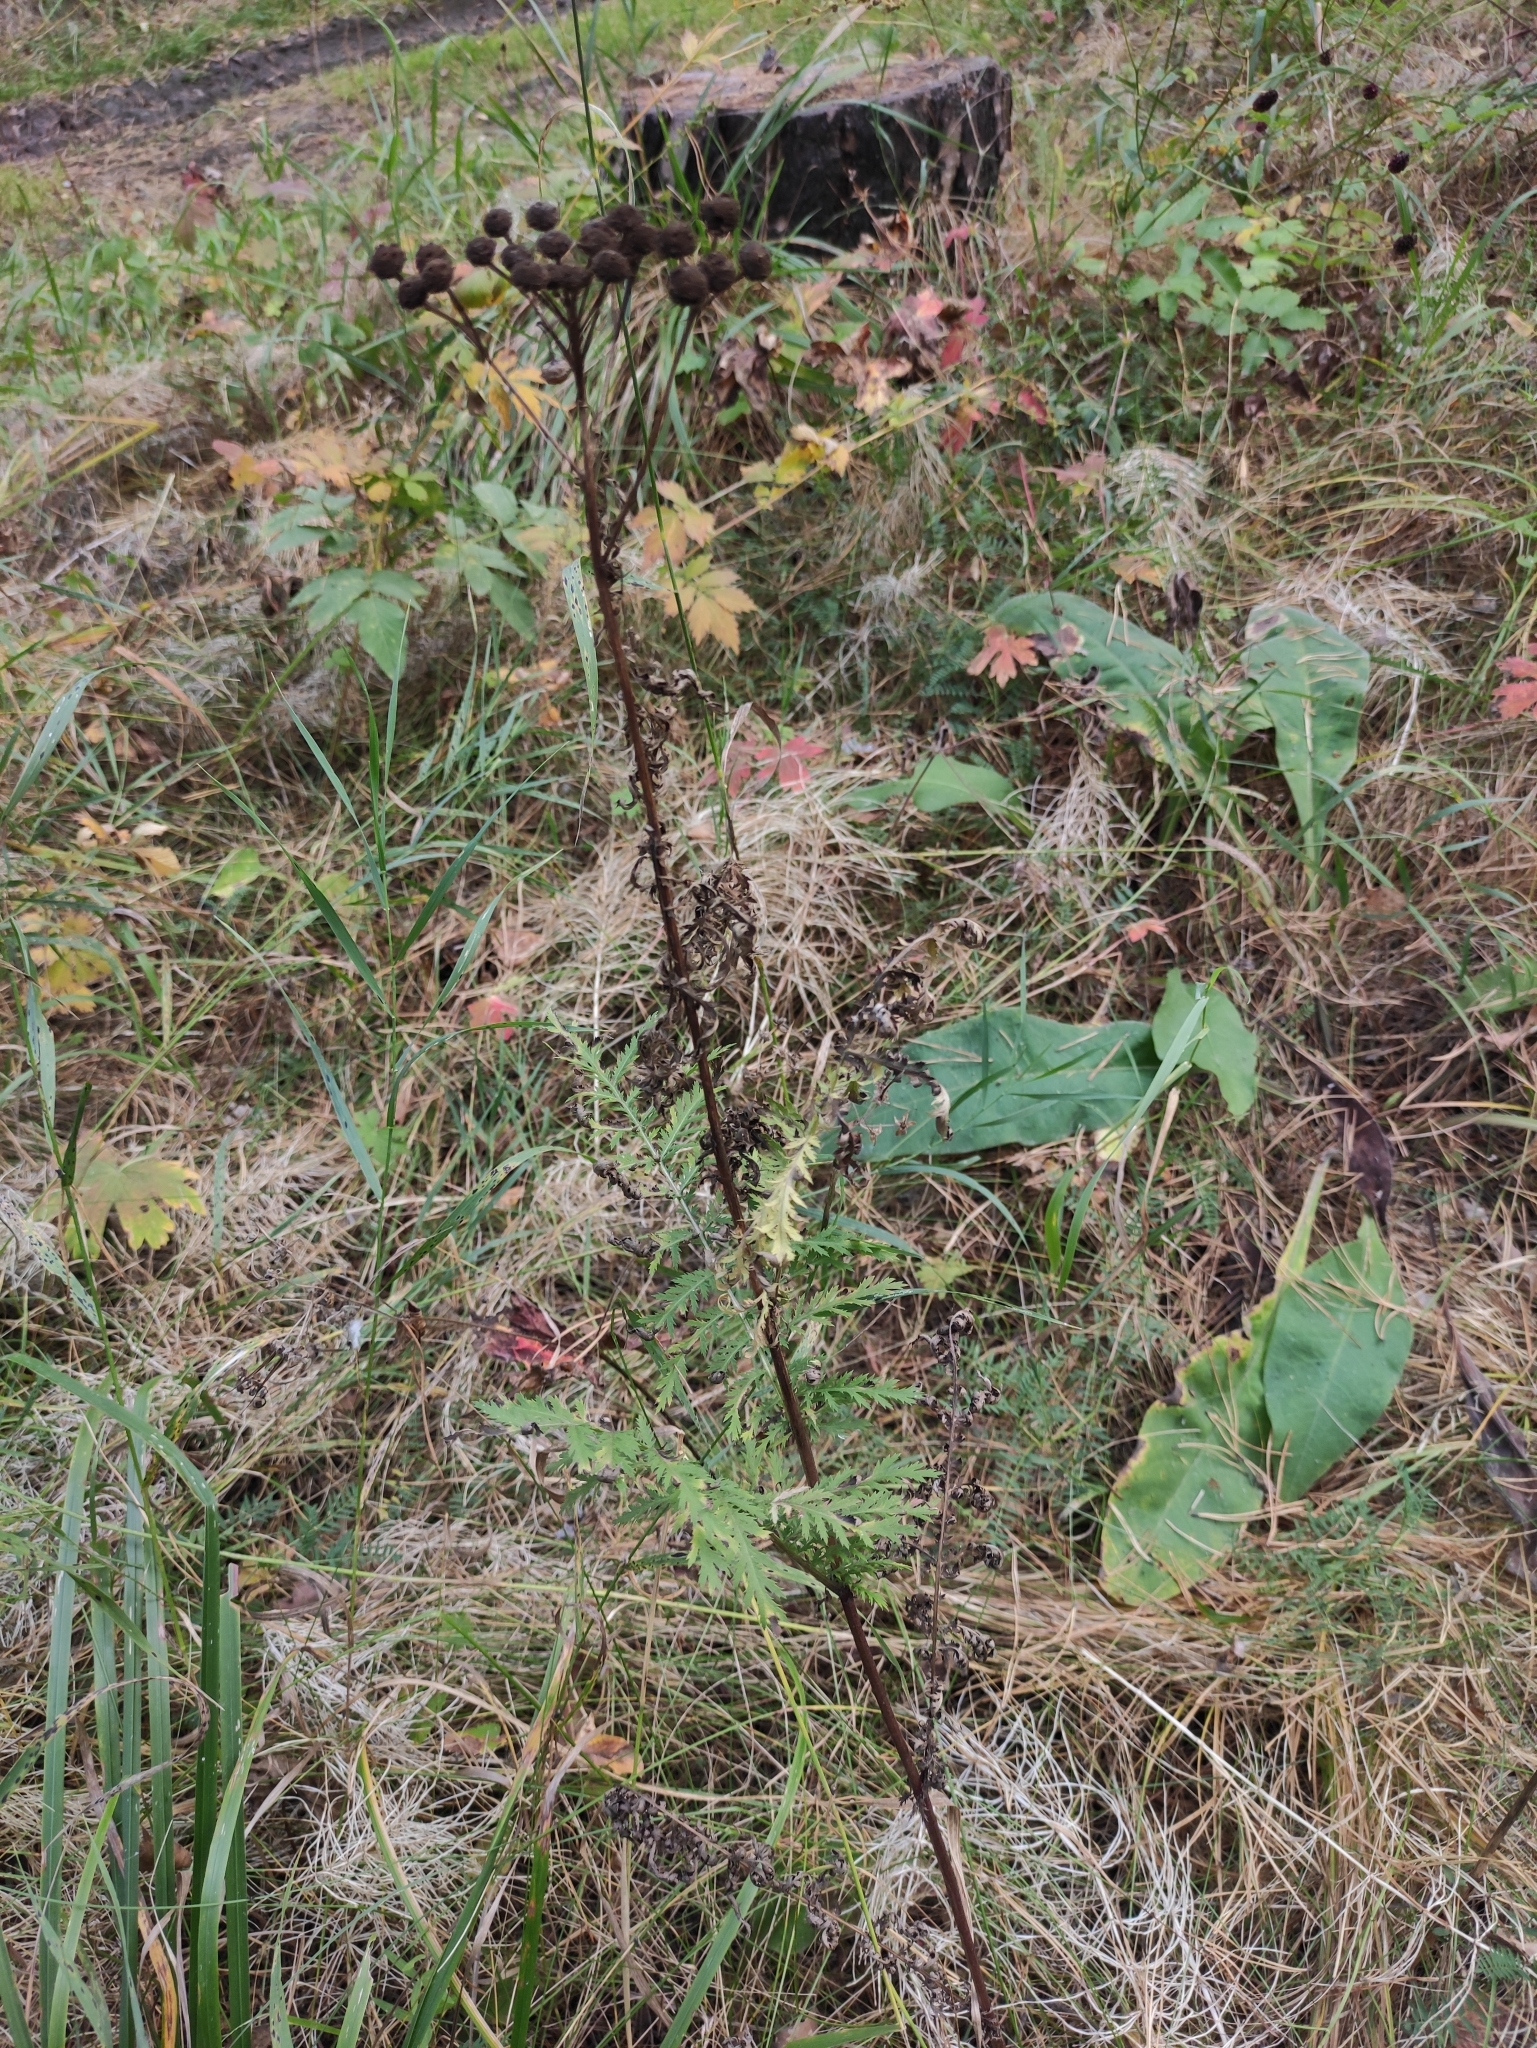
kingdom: Plantae
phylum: Tracheophyta
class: Magnoliopsida
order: Asterales
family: Asteraceae
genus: Tanacetum
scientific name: Tanacetum vulgare
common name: Common tansy
